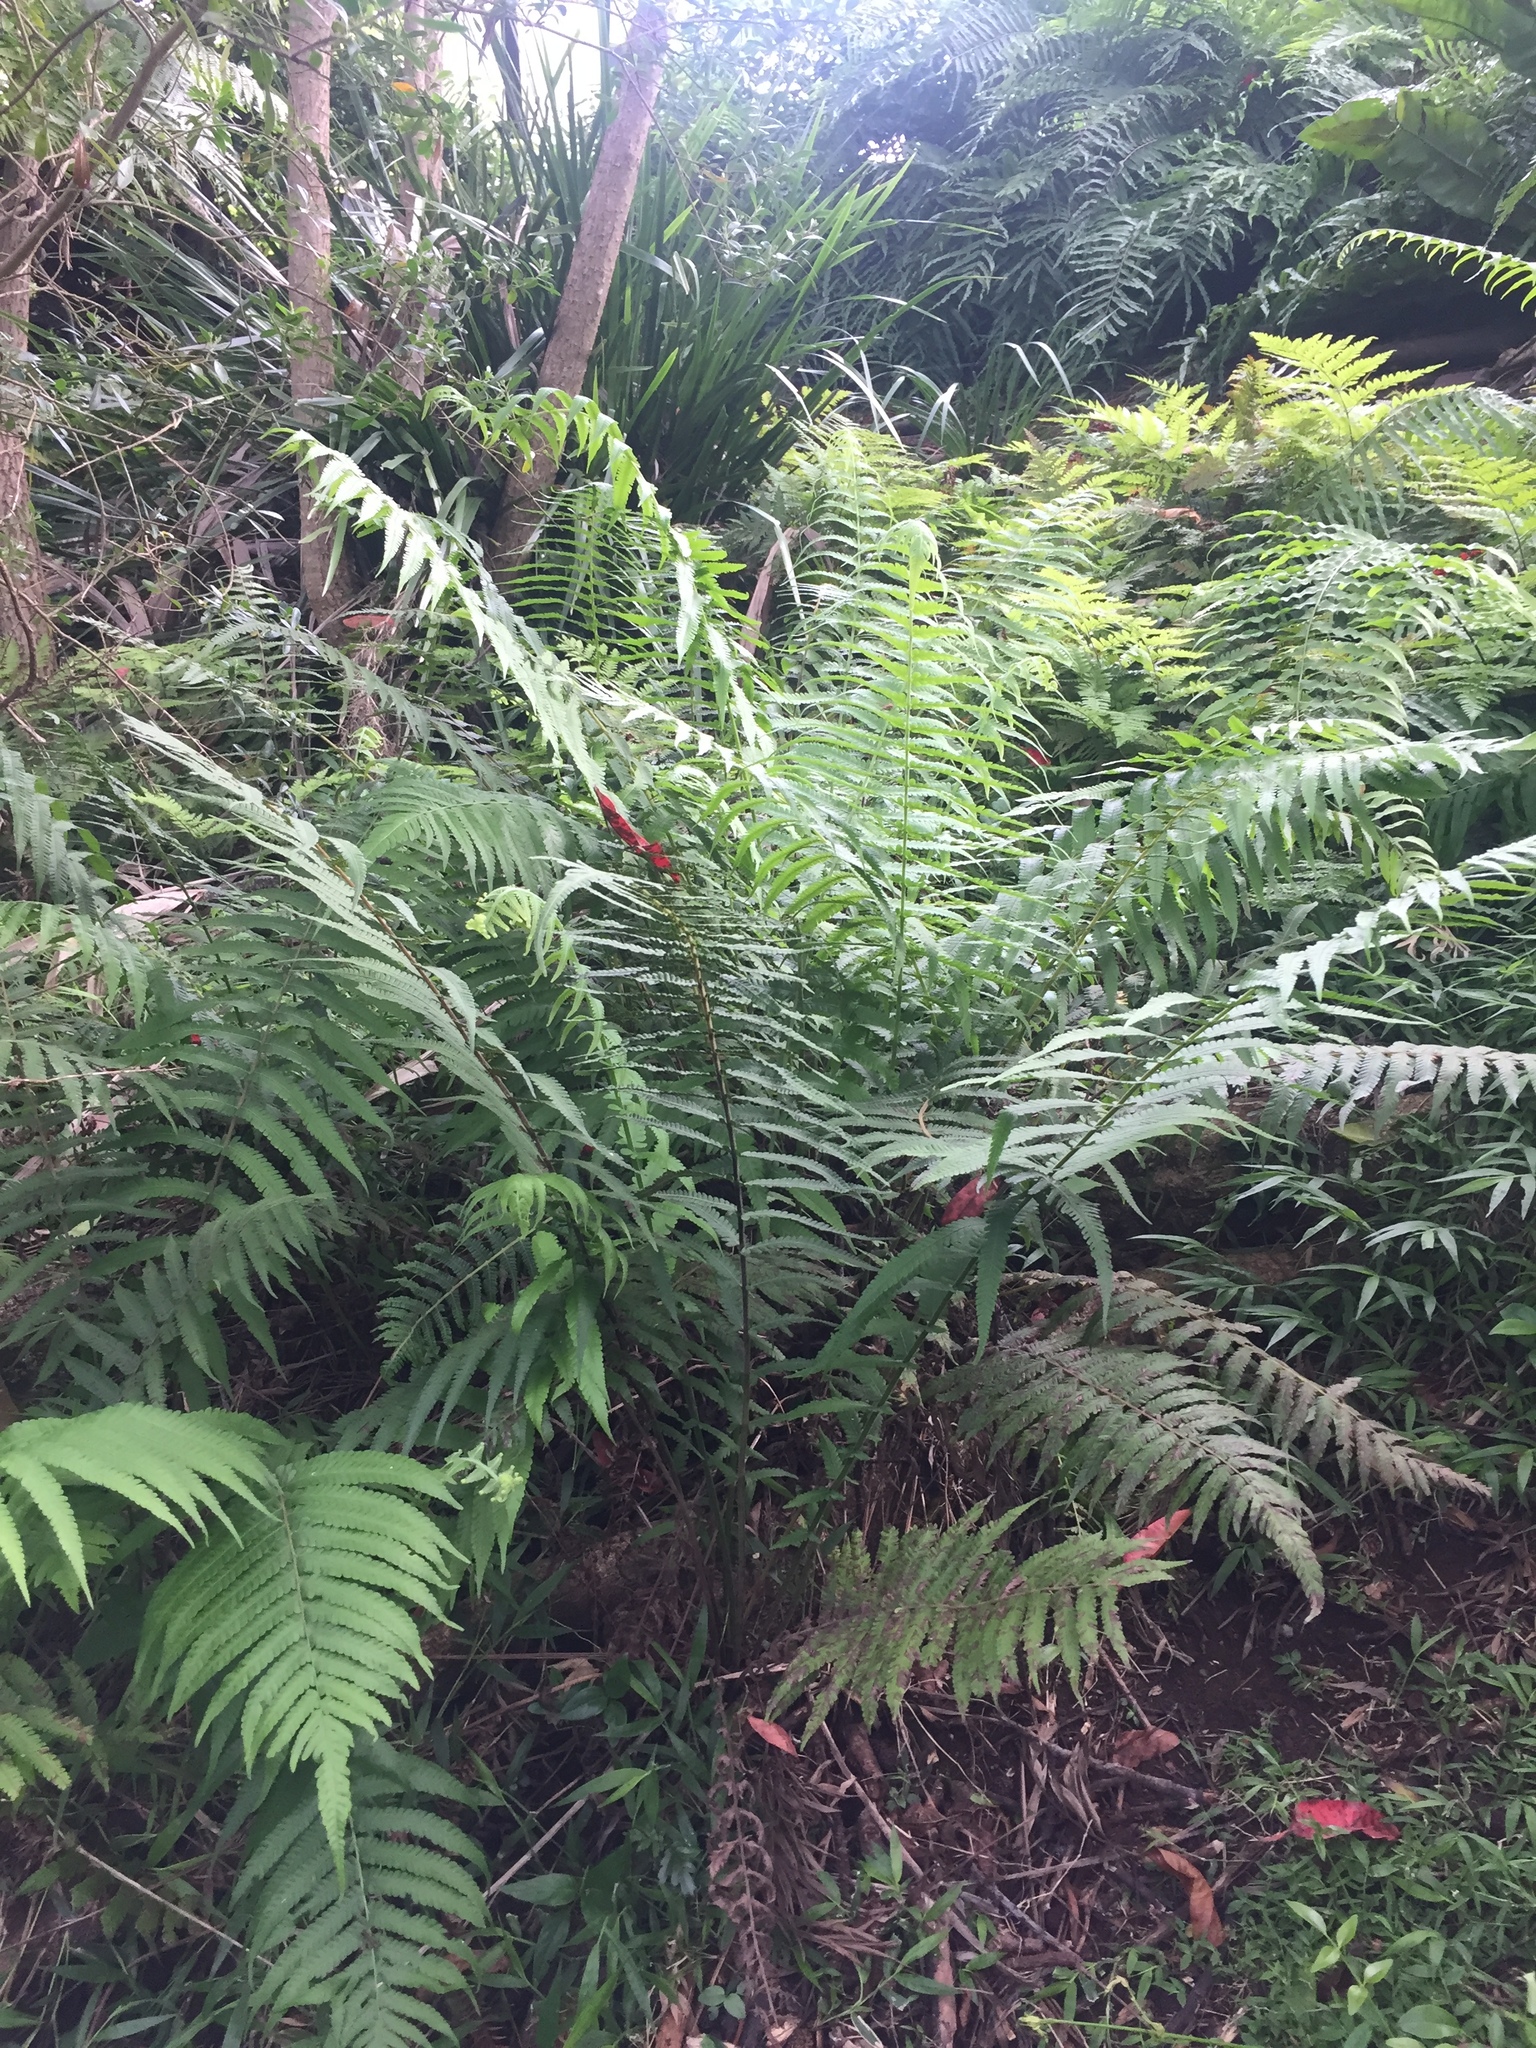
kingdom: Plantae
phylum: Tracheophyta
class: Polypodiopsida
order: Polypodiales
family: Thelypteridaceae
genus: Christella
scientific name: Christella dentata
